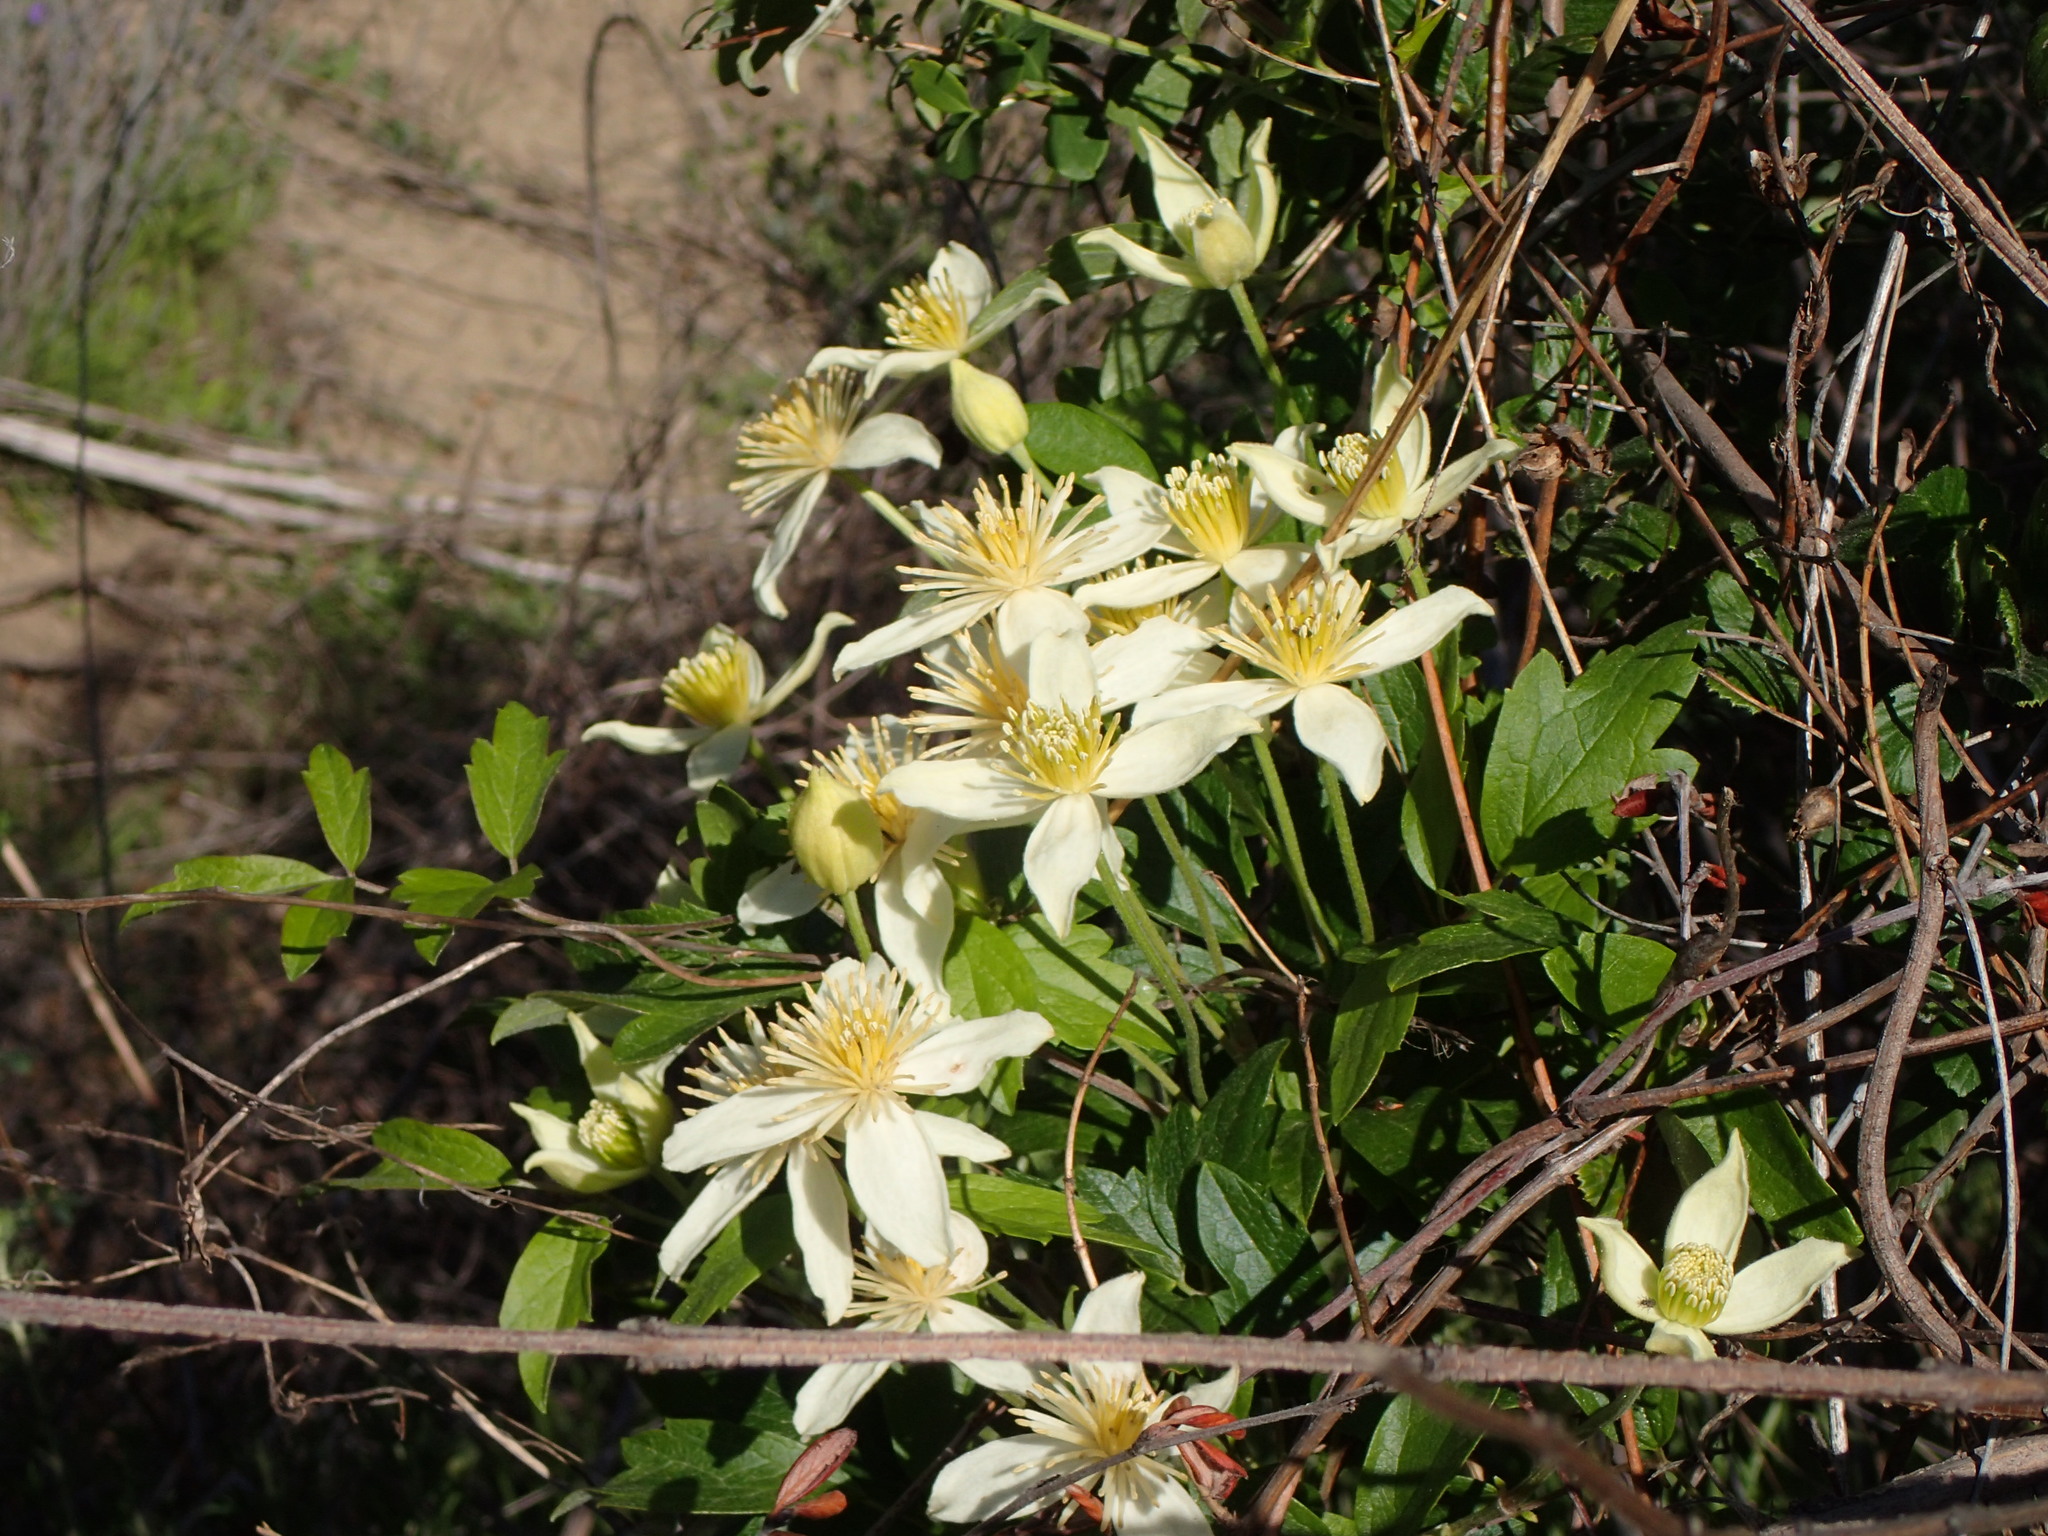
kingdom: Plantae
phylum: Tracheophyta
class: Magnoliopsida
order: Ranunculales
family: Ranunculaceae
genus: Clematis
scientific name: Clematis lasiantha
